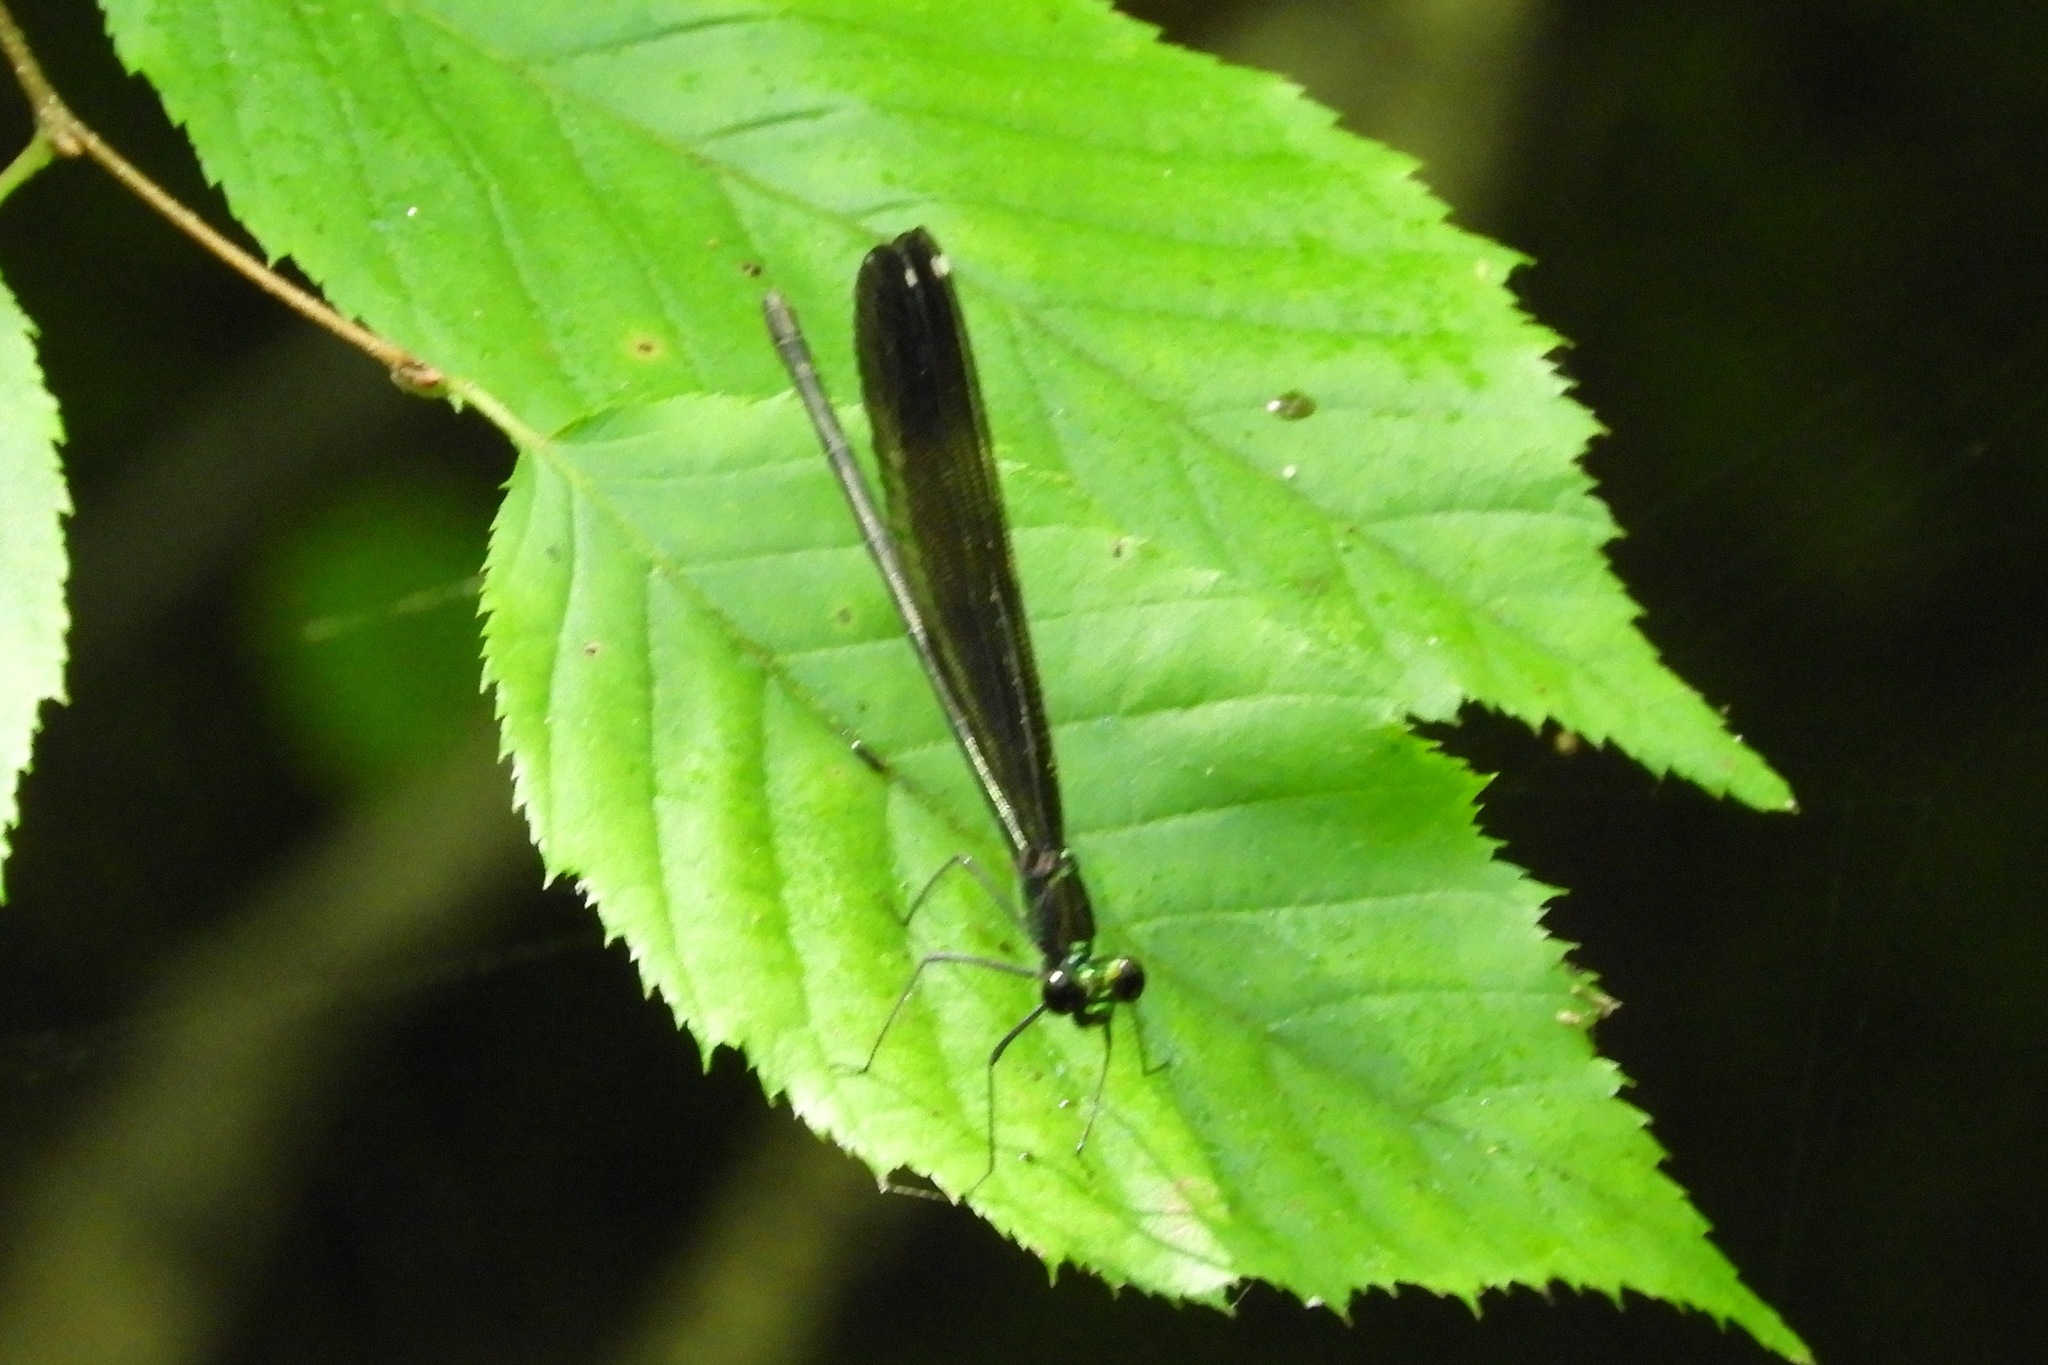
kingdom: Animalia
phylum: Arthropoda
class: Insecta
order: Odonata
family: Calopterygidae
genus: Calopteryx
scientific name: Calopteryx maculata
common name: Ebony jewelwing
